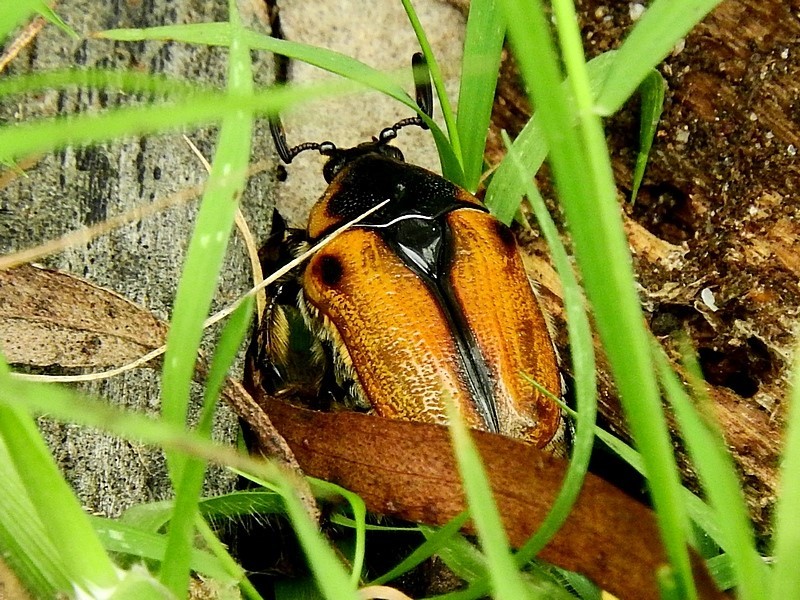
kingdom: Animalia
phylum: Arthropoda
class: Insecta
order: Coleoptera
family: Scarabaeidae
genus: Chondropyga
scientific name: Chondropyga dorsalis
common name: Cowboy beetle
